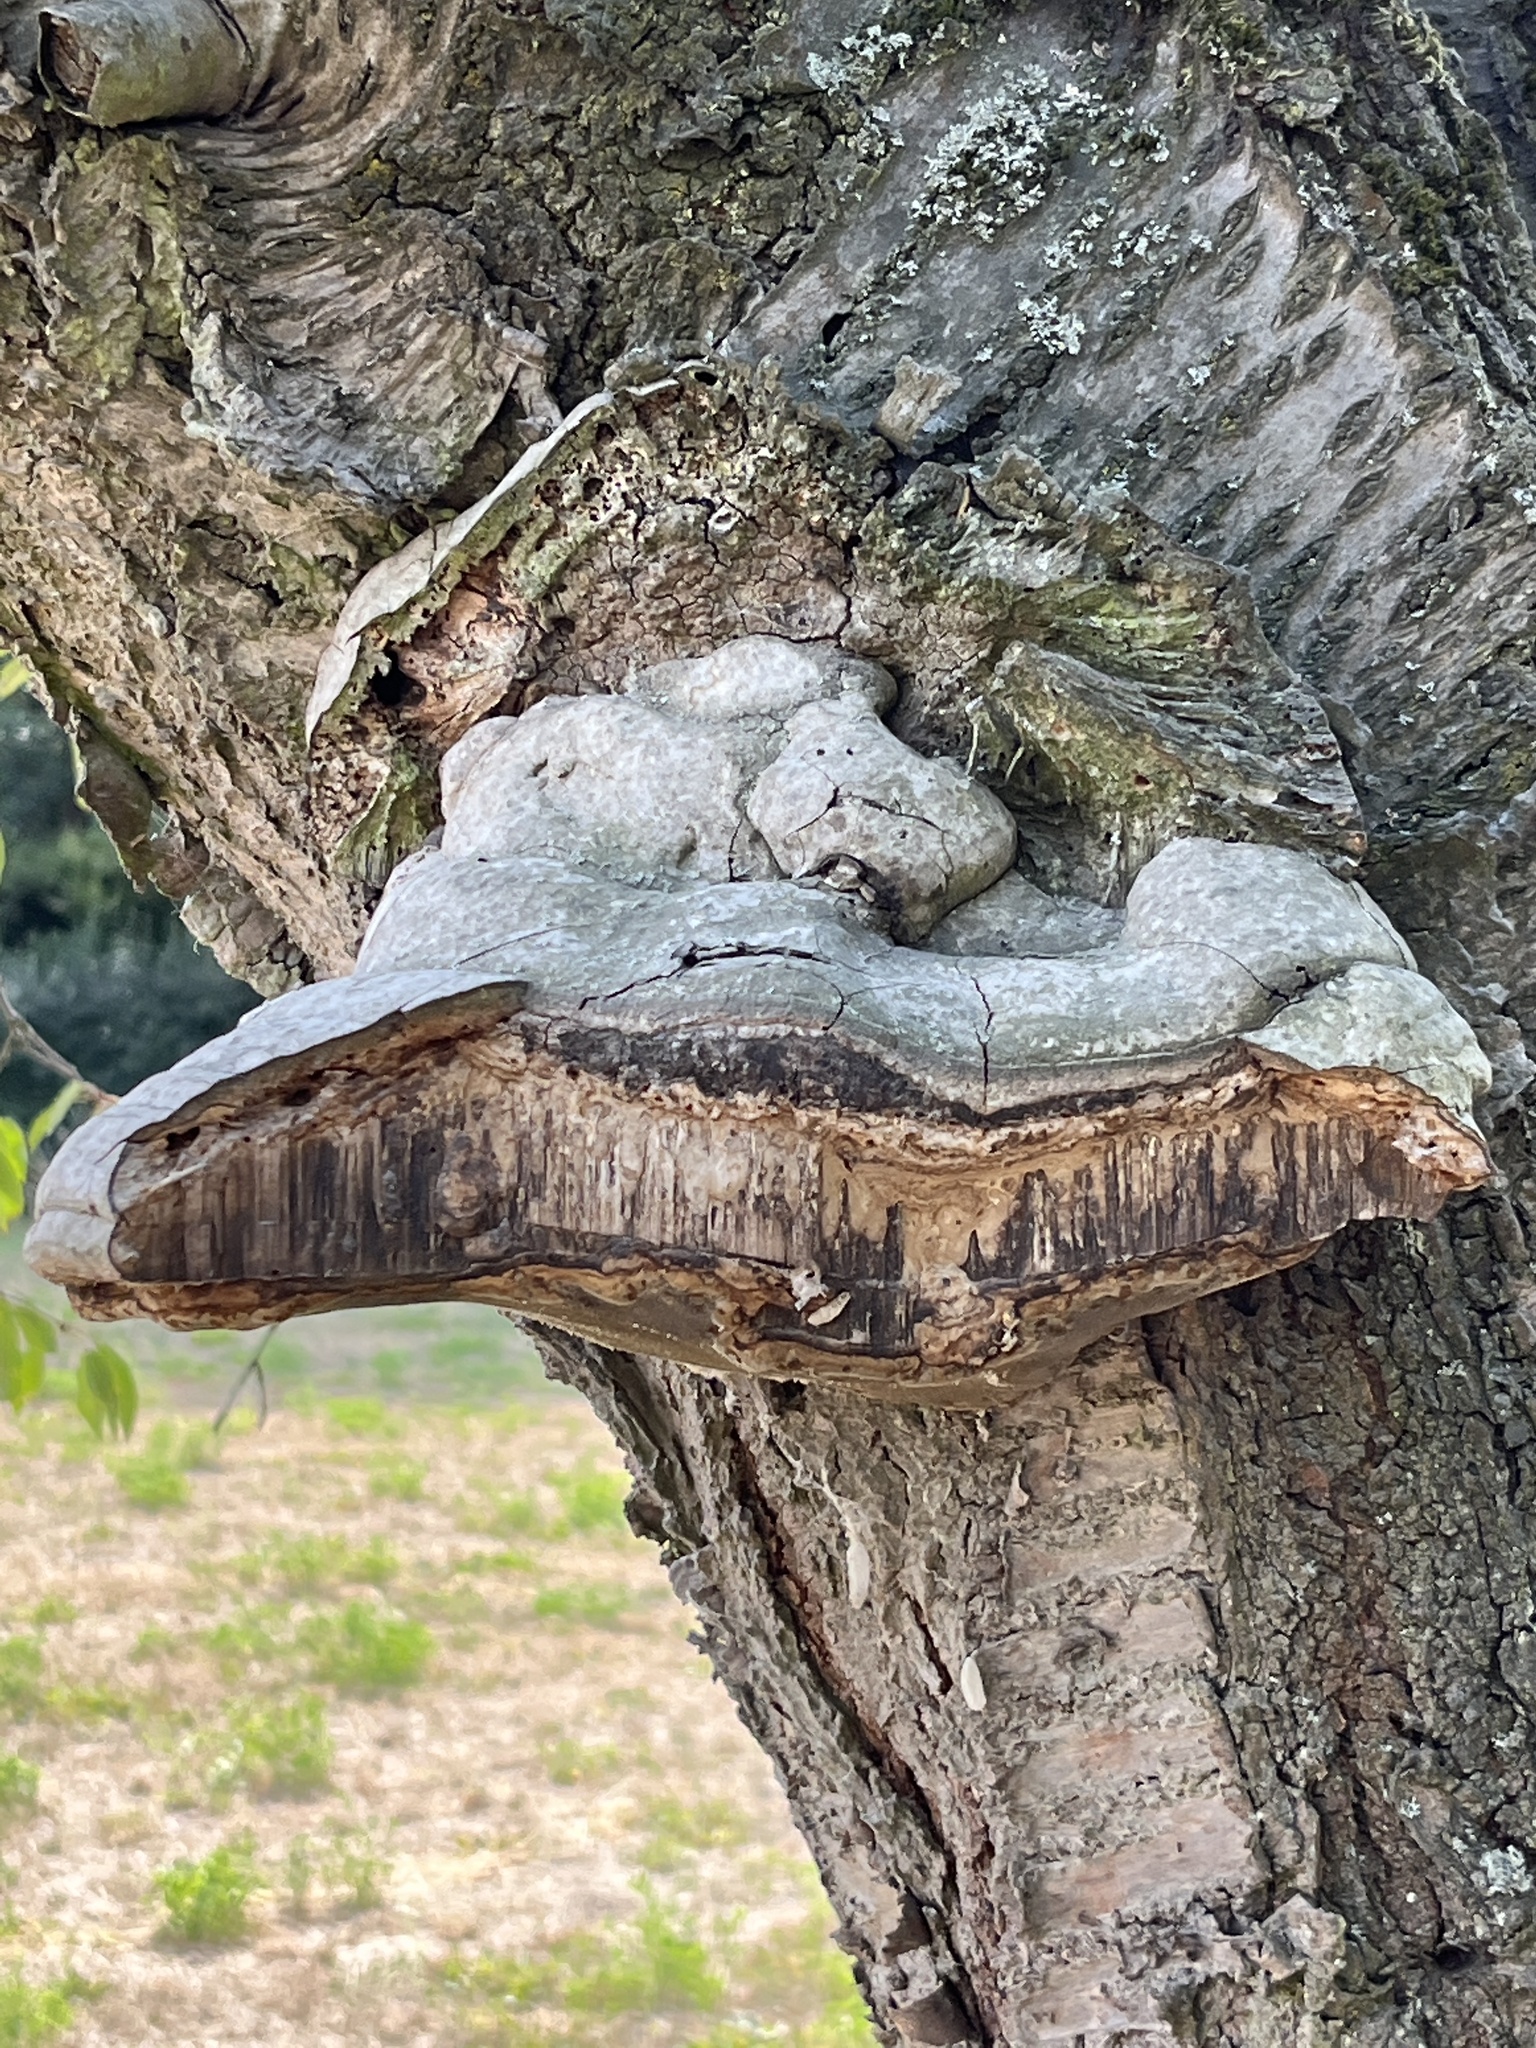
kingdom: Fungi
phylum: Basidiomycota
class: Agaricomycetes
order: Polyporales
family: Polyporaceae
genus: Fomes
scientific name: Fomes fomentarius
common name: Hoof fungus
